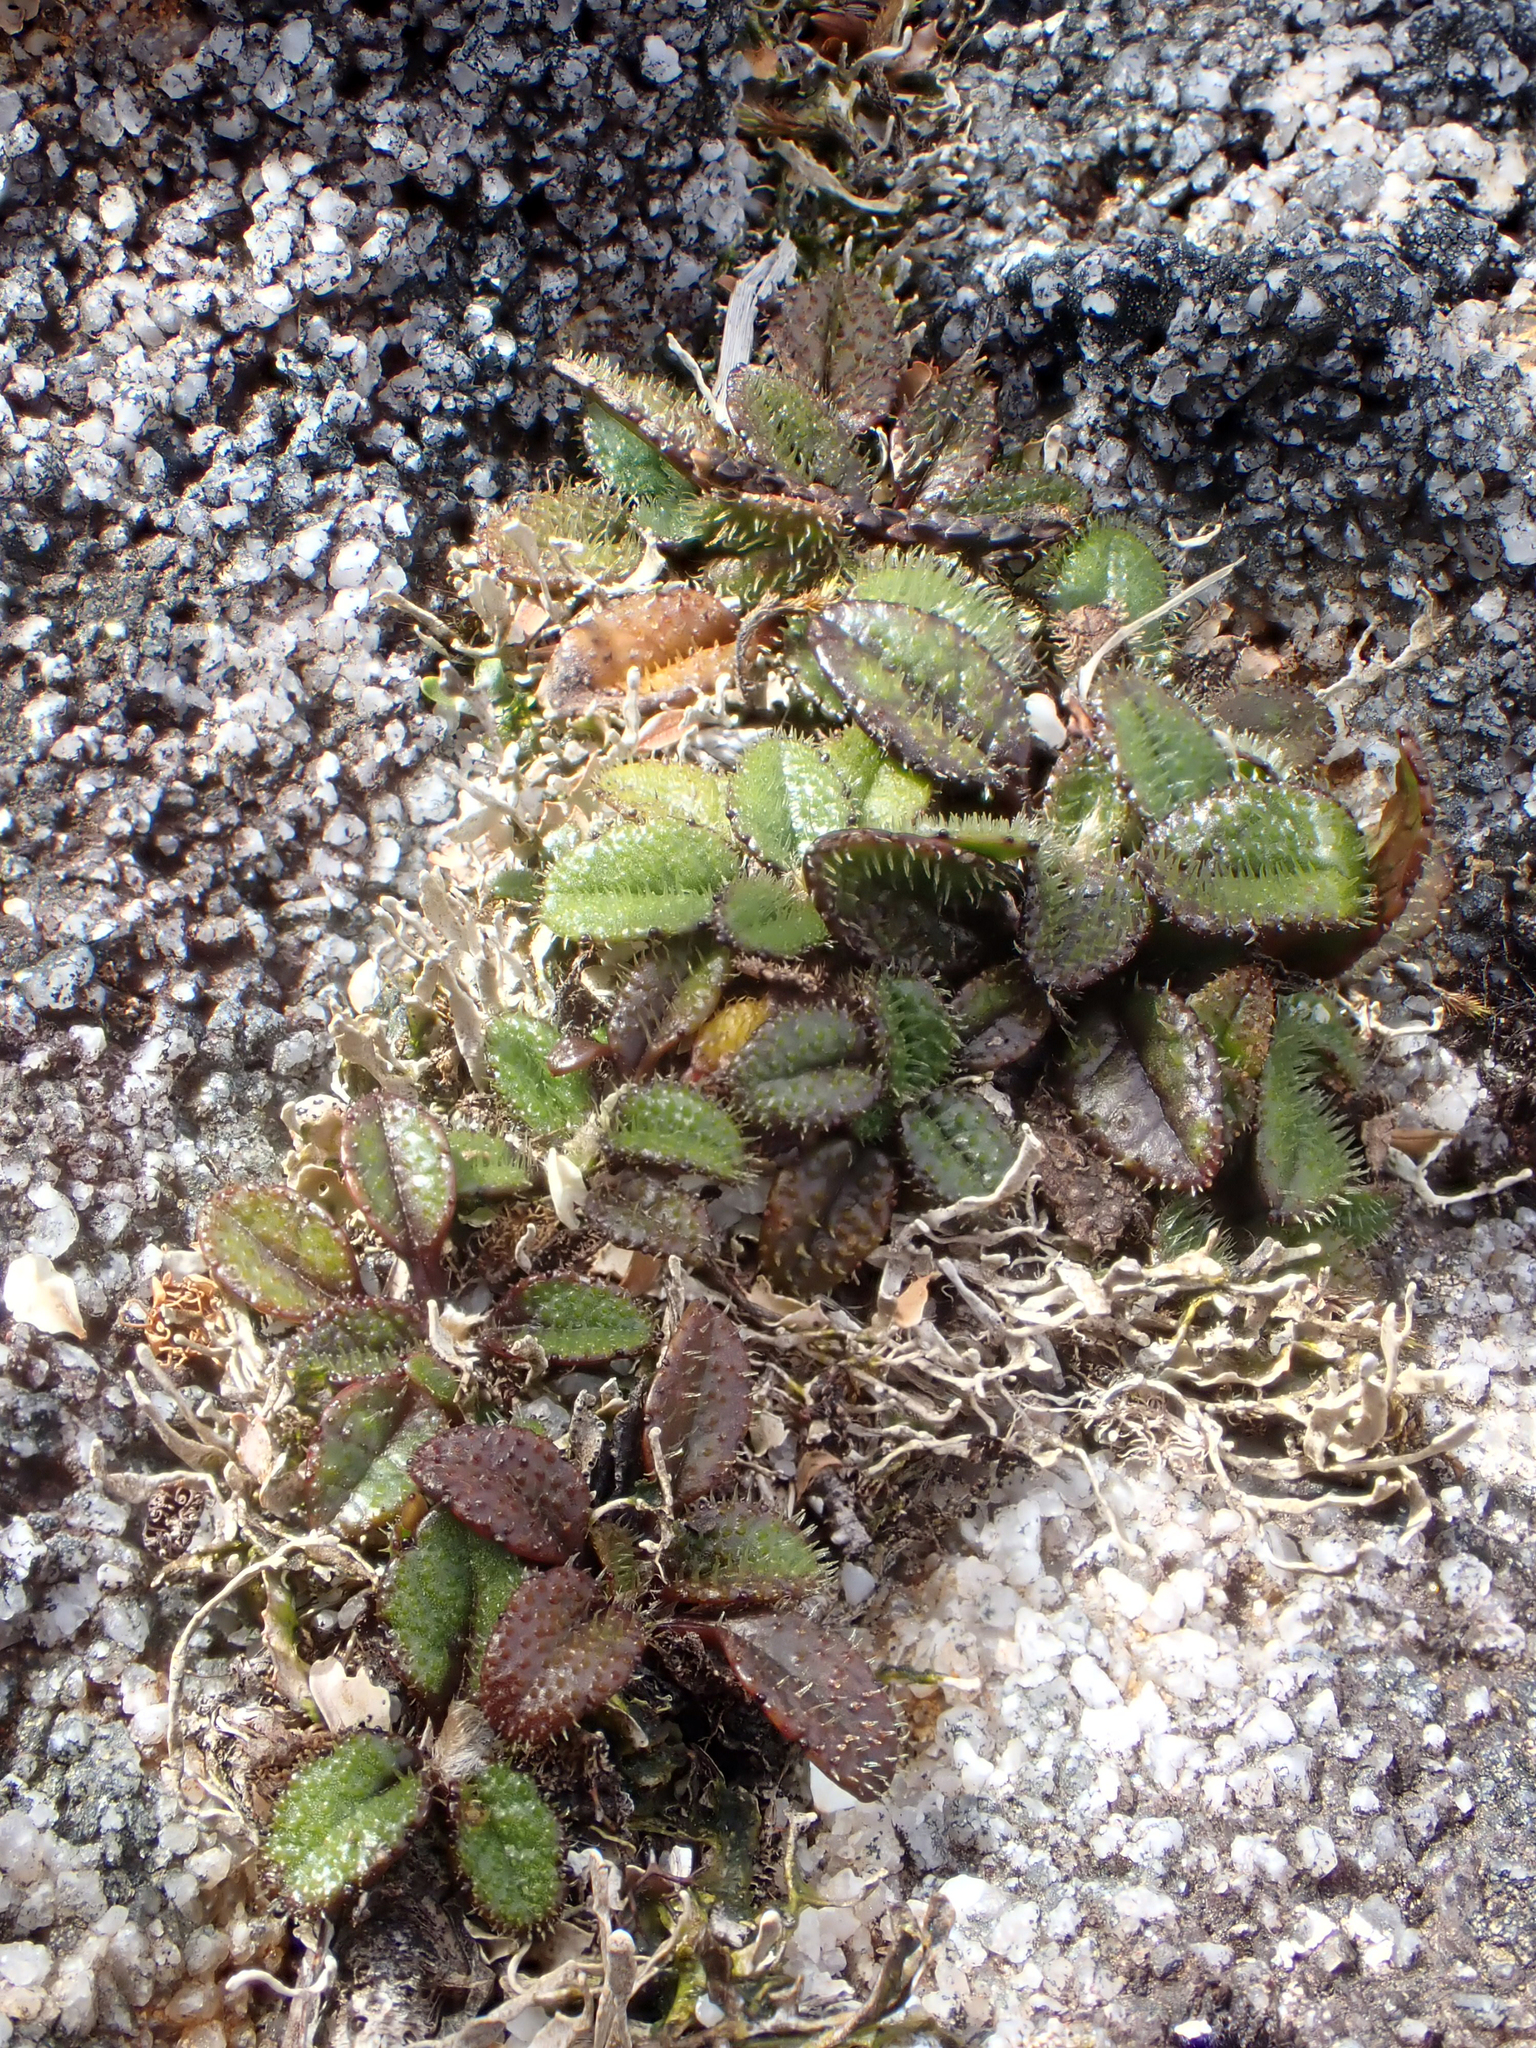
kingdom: Plantae
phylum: Tracheophyta
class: Magnoliopsida
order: Asterales
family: Asteraceae
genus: Brachyglottis
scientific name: Brachyglottis traversii
